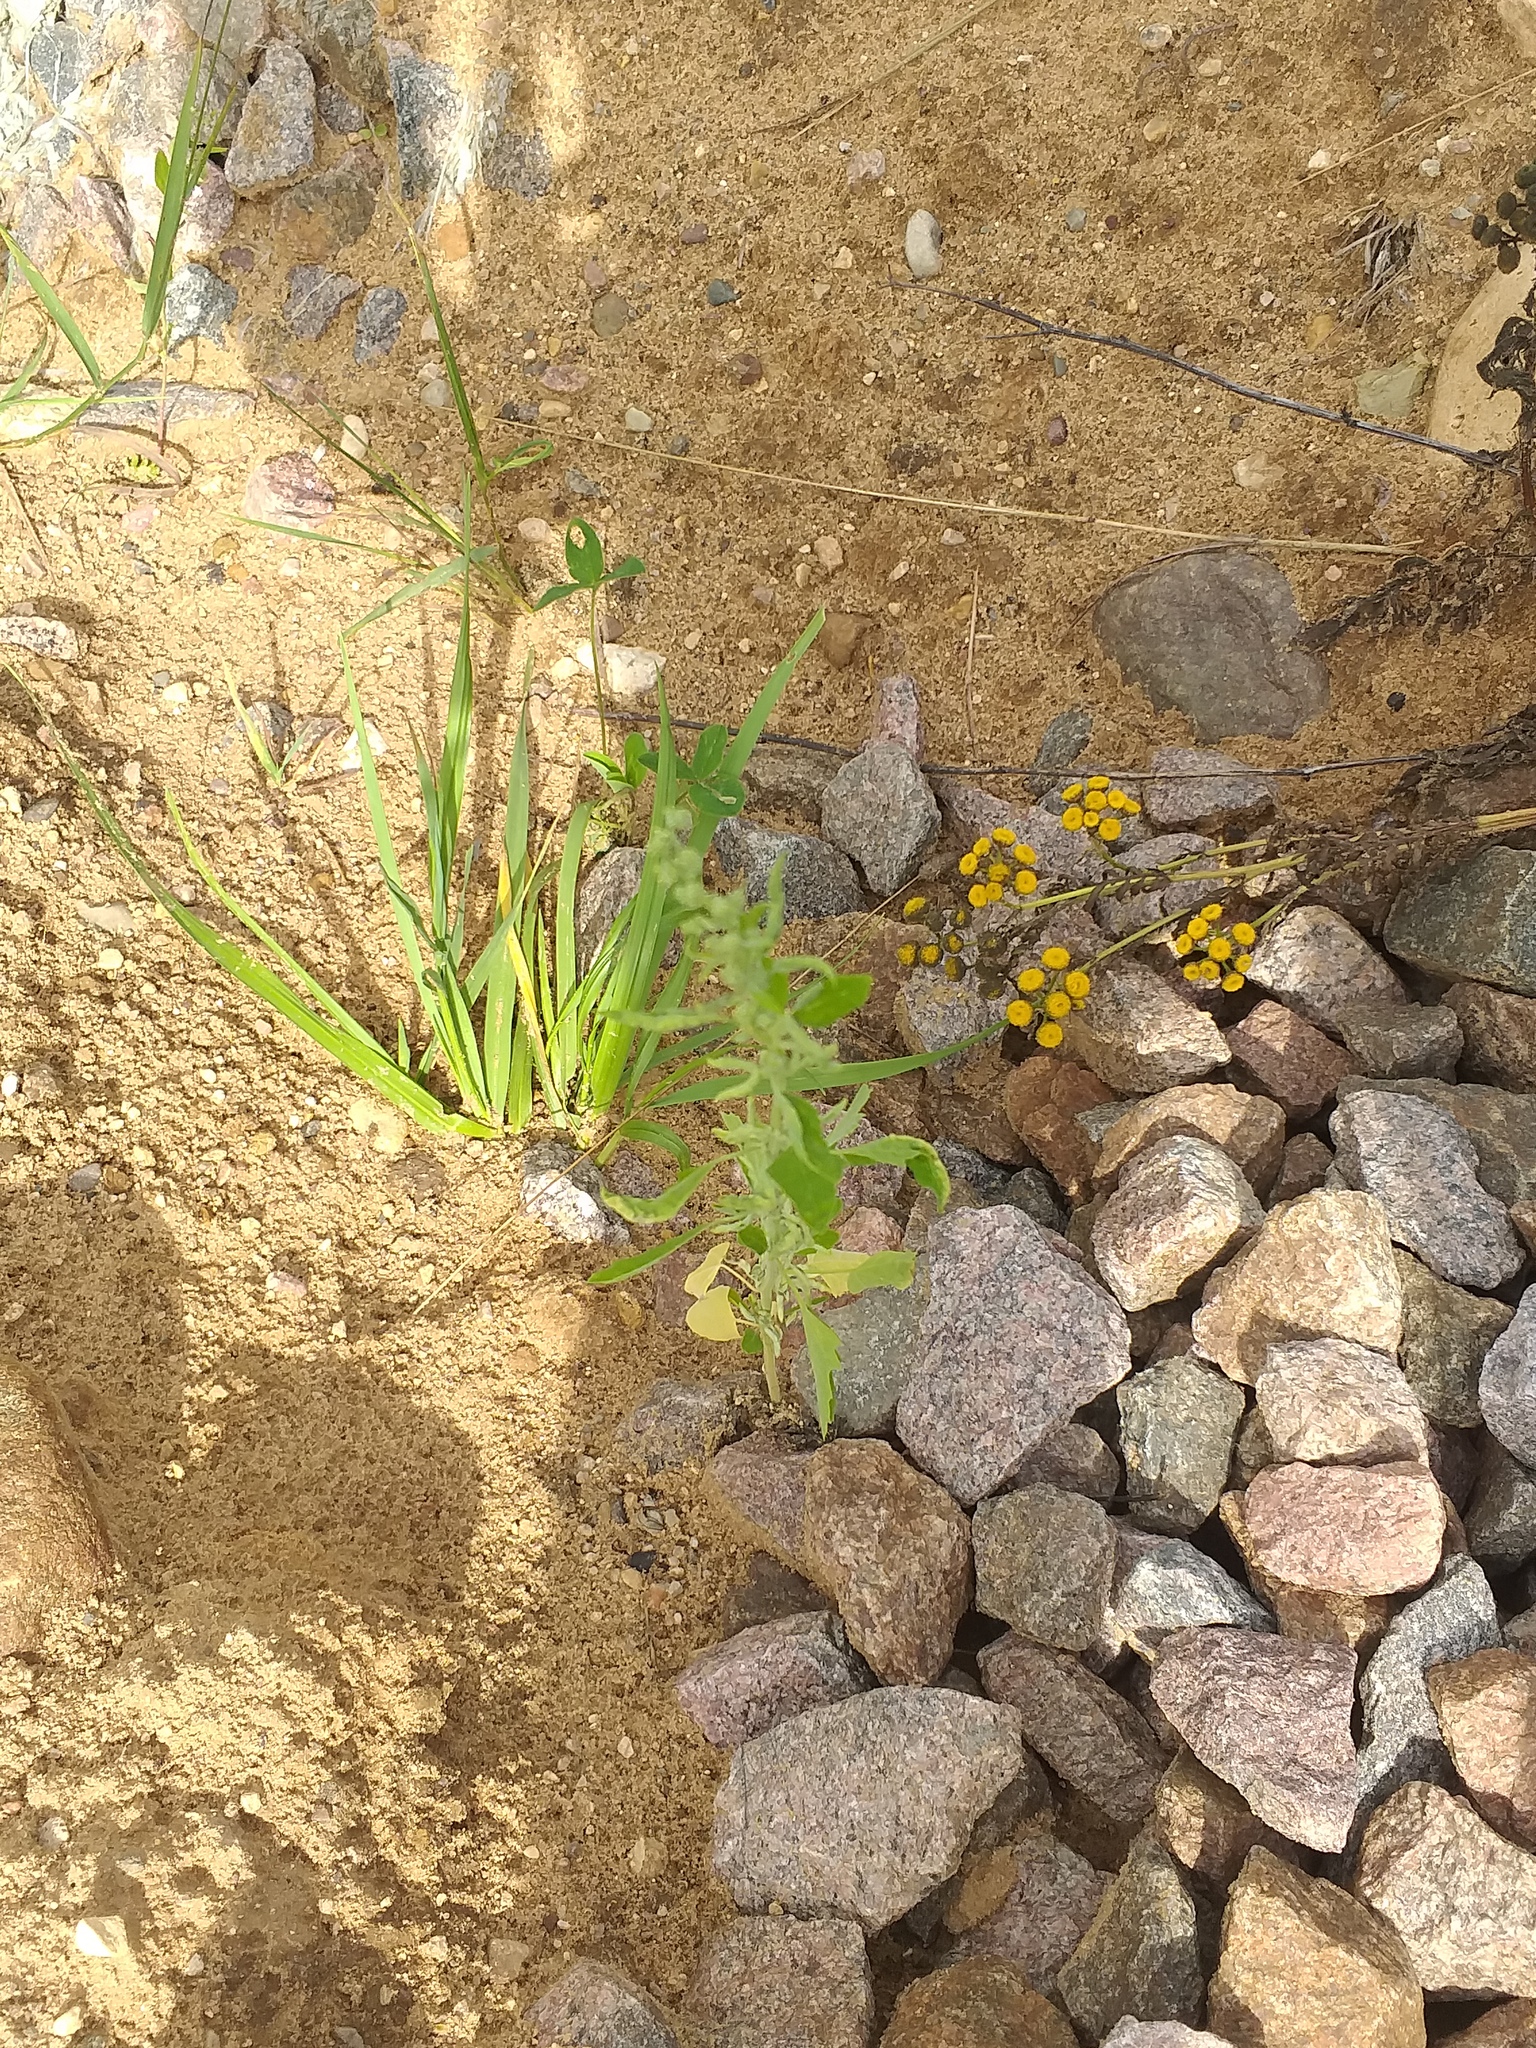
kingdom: Plantae
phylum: Tracheophyta
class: Magnoliopsida
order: Caryophyllales
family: Amaranthaceae
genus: Chenopodium
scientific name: Chenopodium album
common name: Fat-hen
